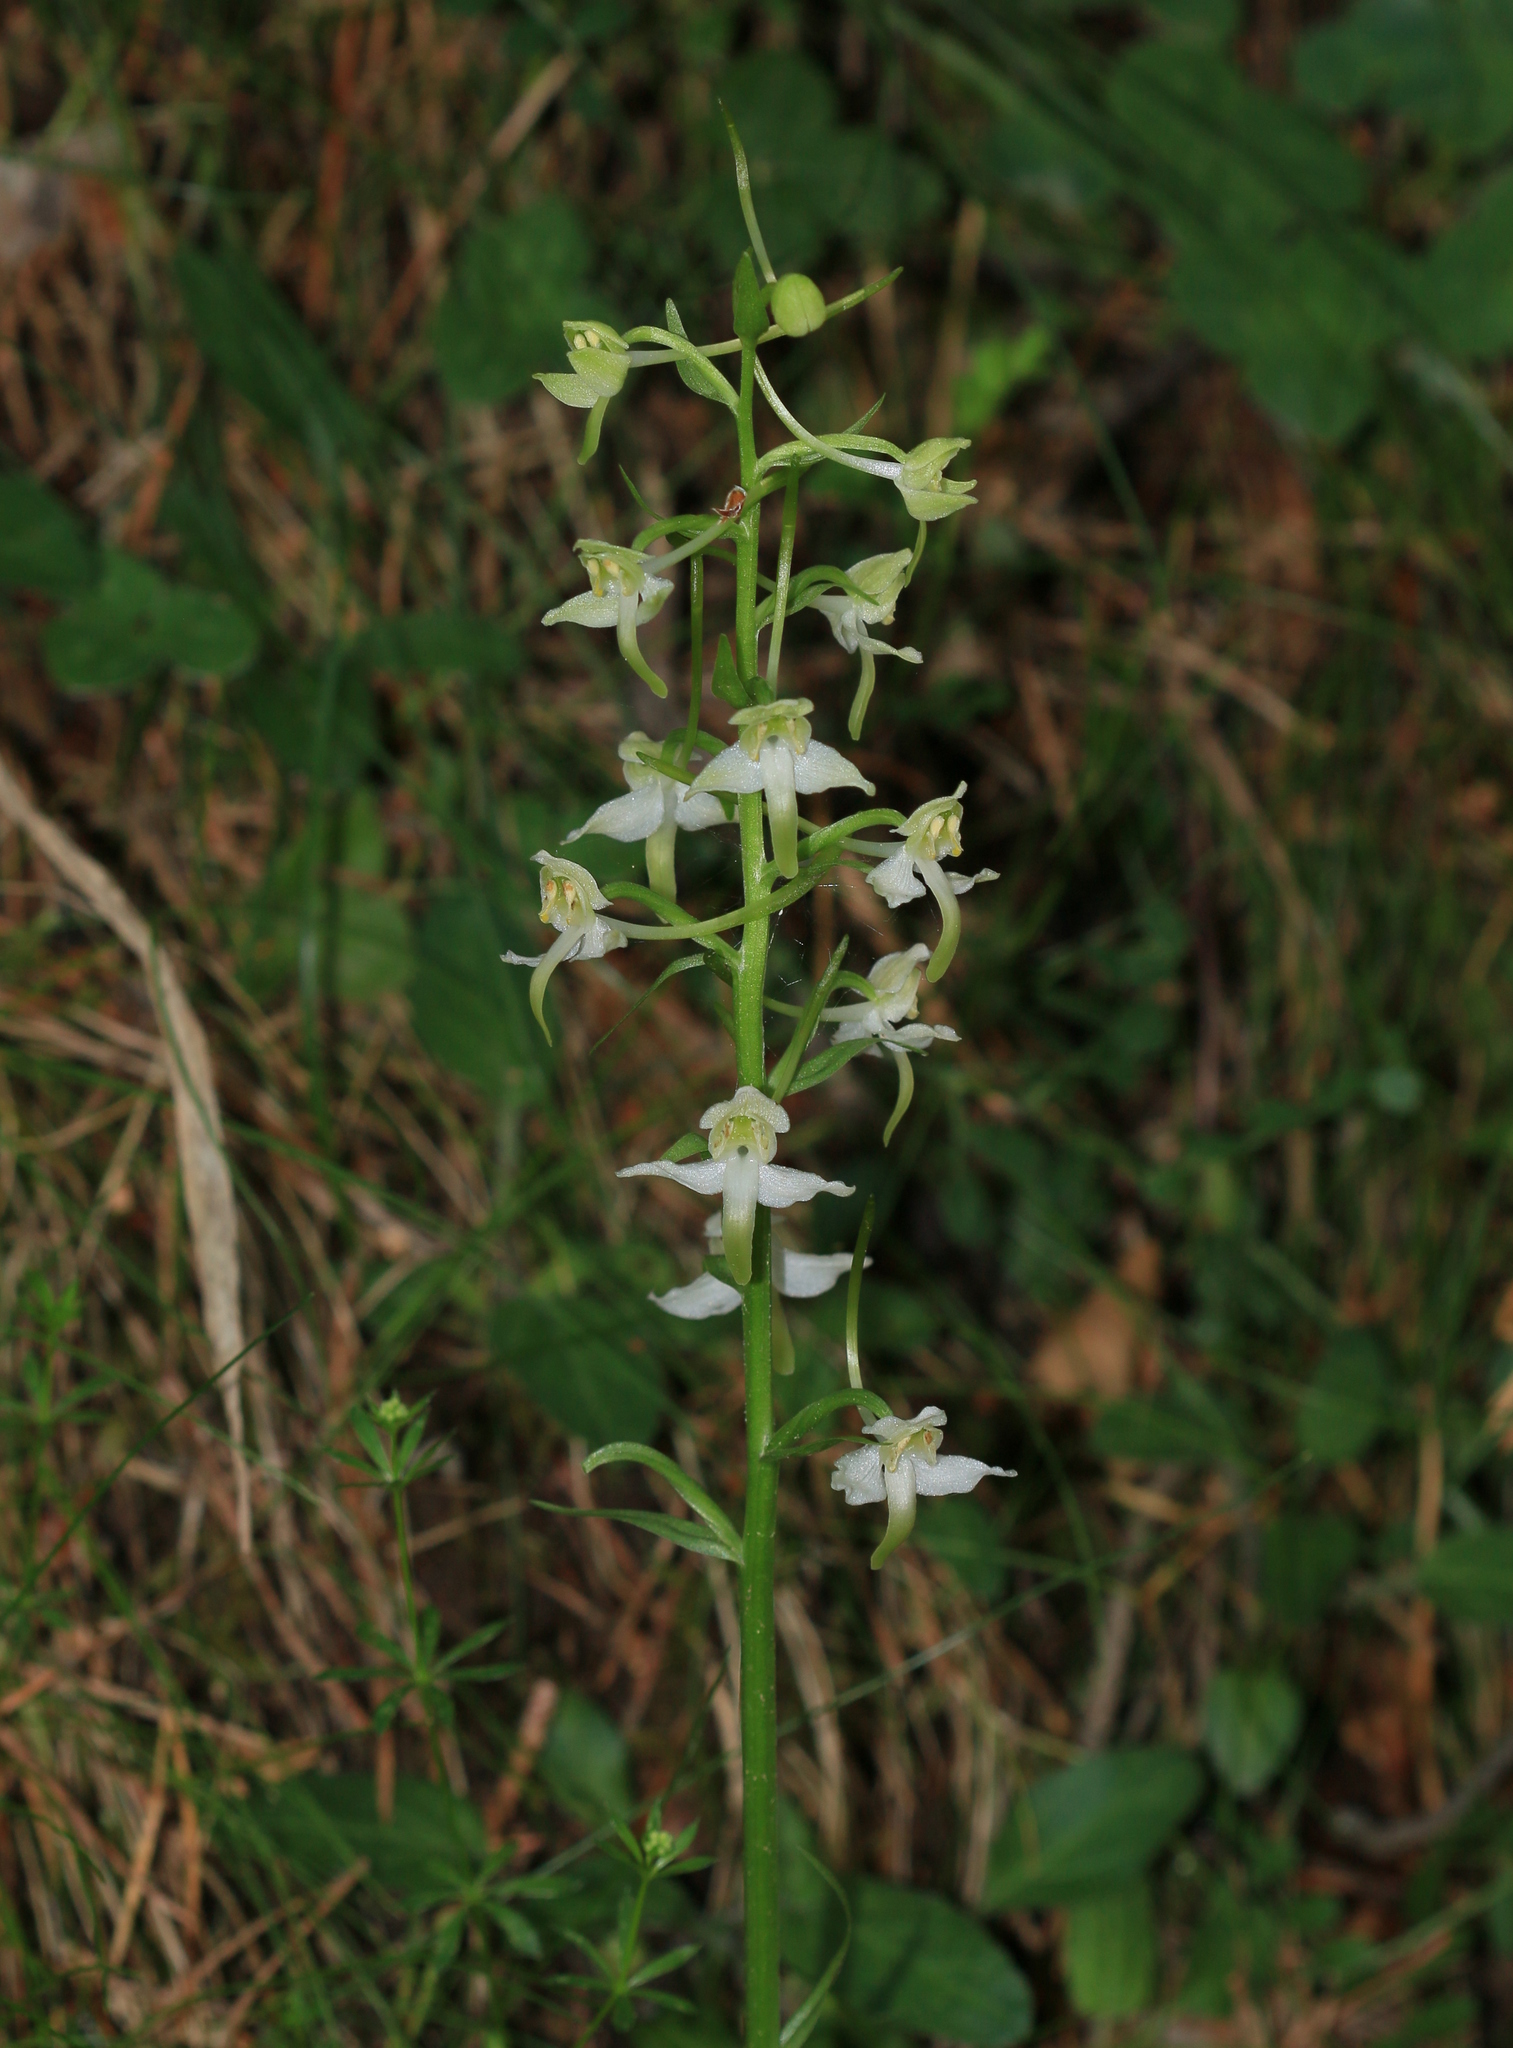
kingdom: Plantae
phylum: Tracheophyta
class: Liliopsida
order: Asparagales
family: Orchidaceae
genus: Platanthera
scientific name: Platanthera chlorantha
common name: Greater butterfly-orchid
